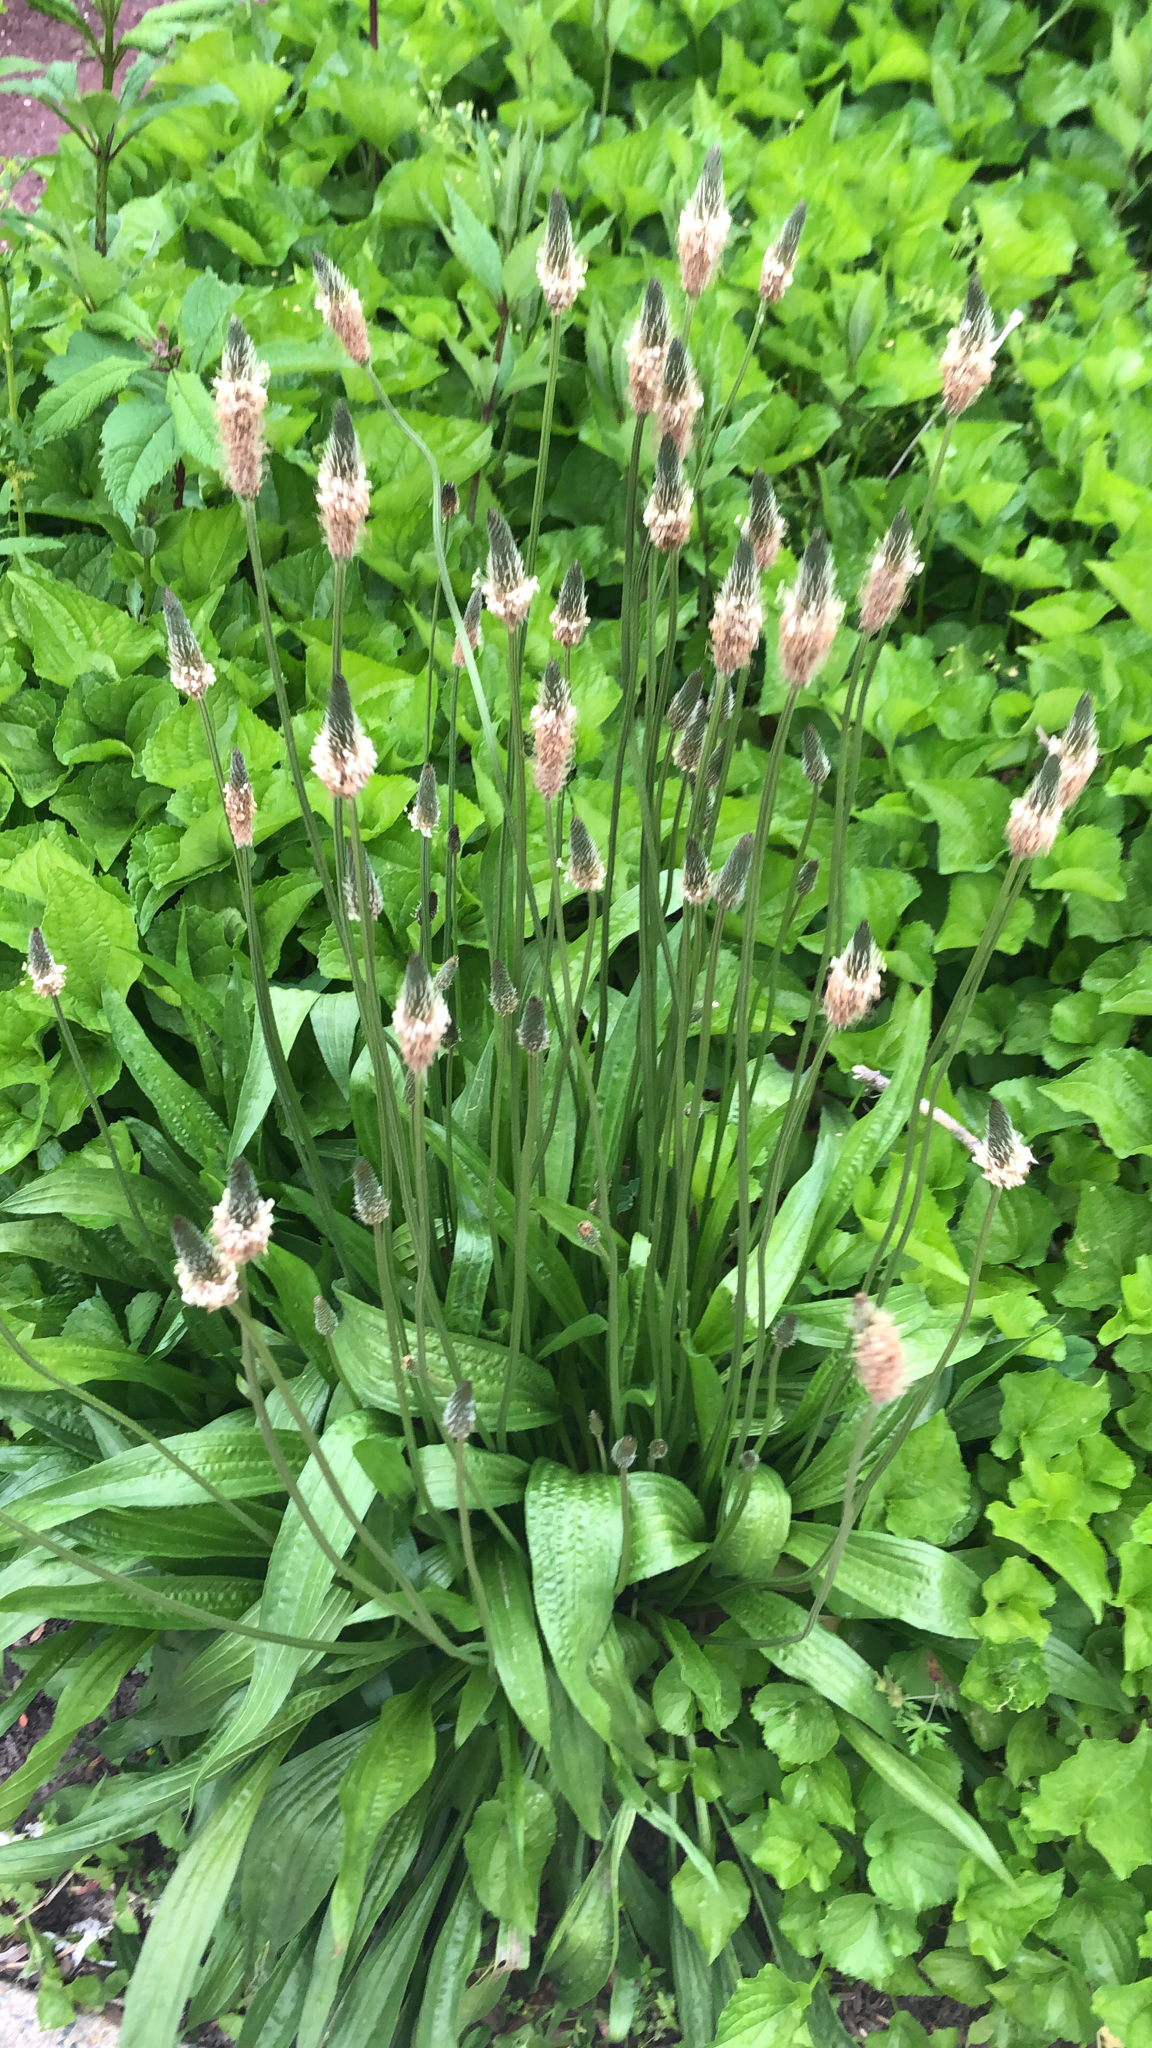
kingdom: Plantae
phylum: Tracheophyta
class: Magnoliopsida
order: Lamiales
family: Plantaginaceae
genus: Plantago
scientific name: Plantago lanceolata
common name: Ribwort plantain
